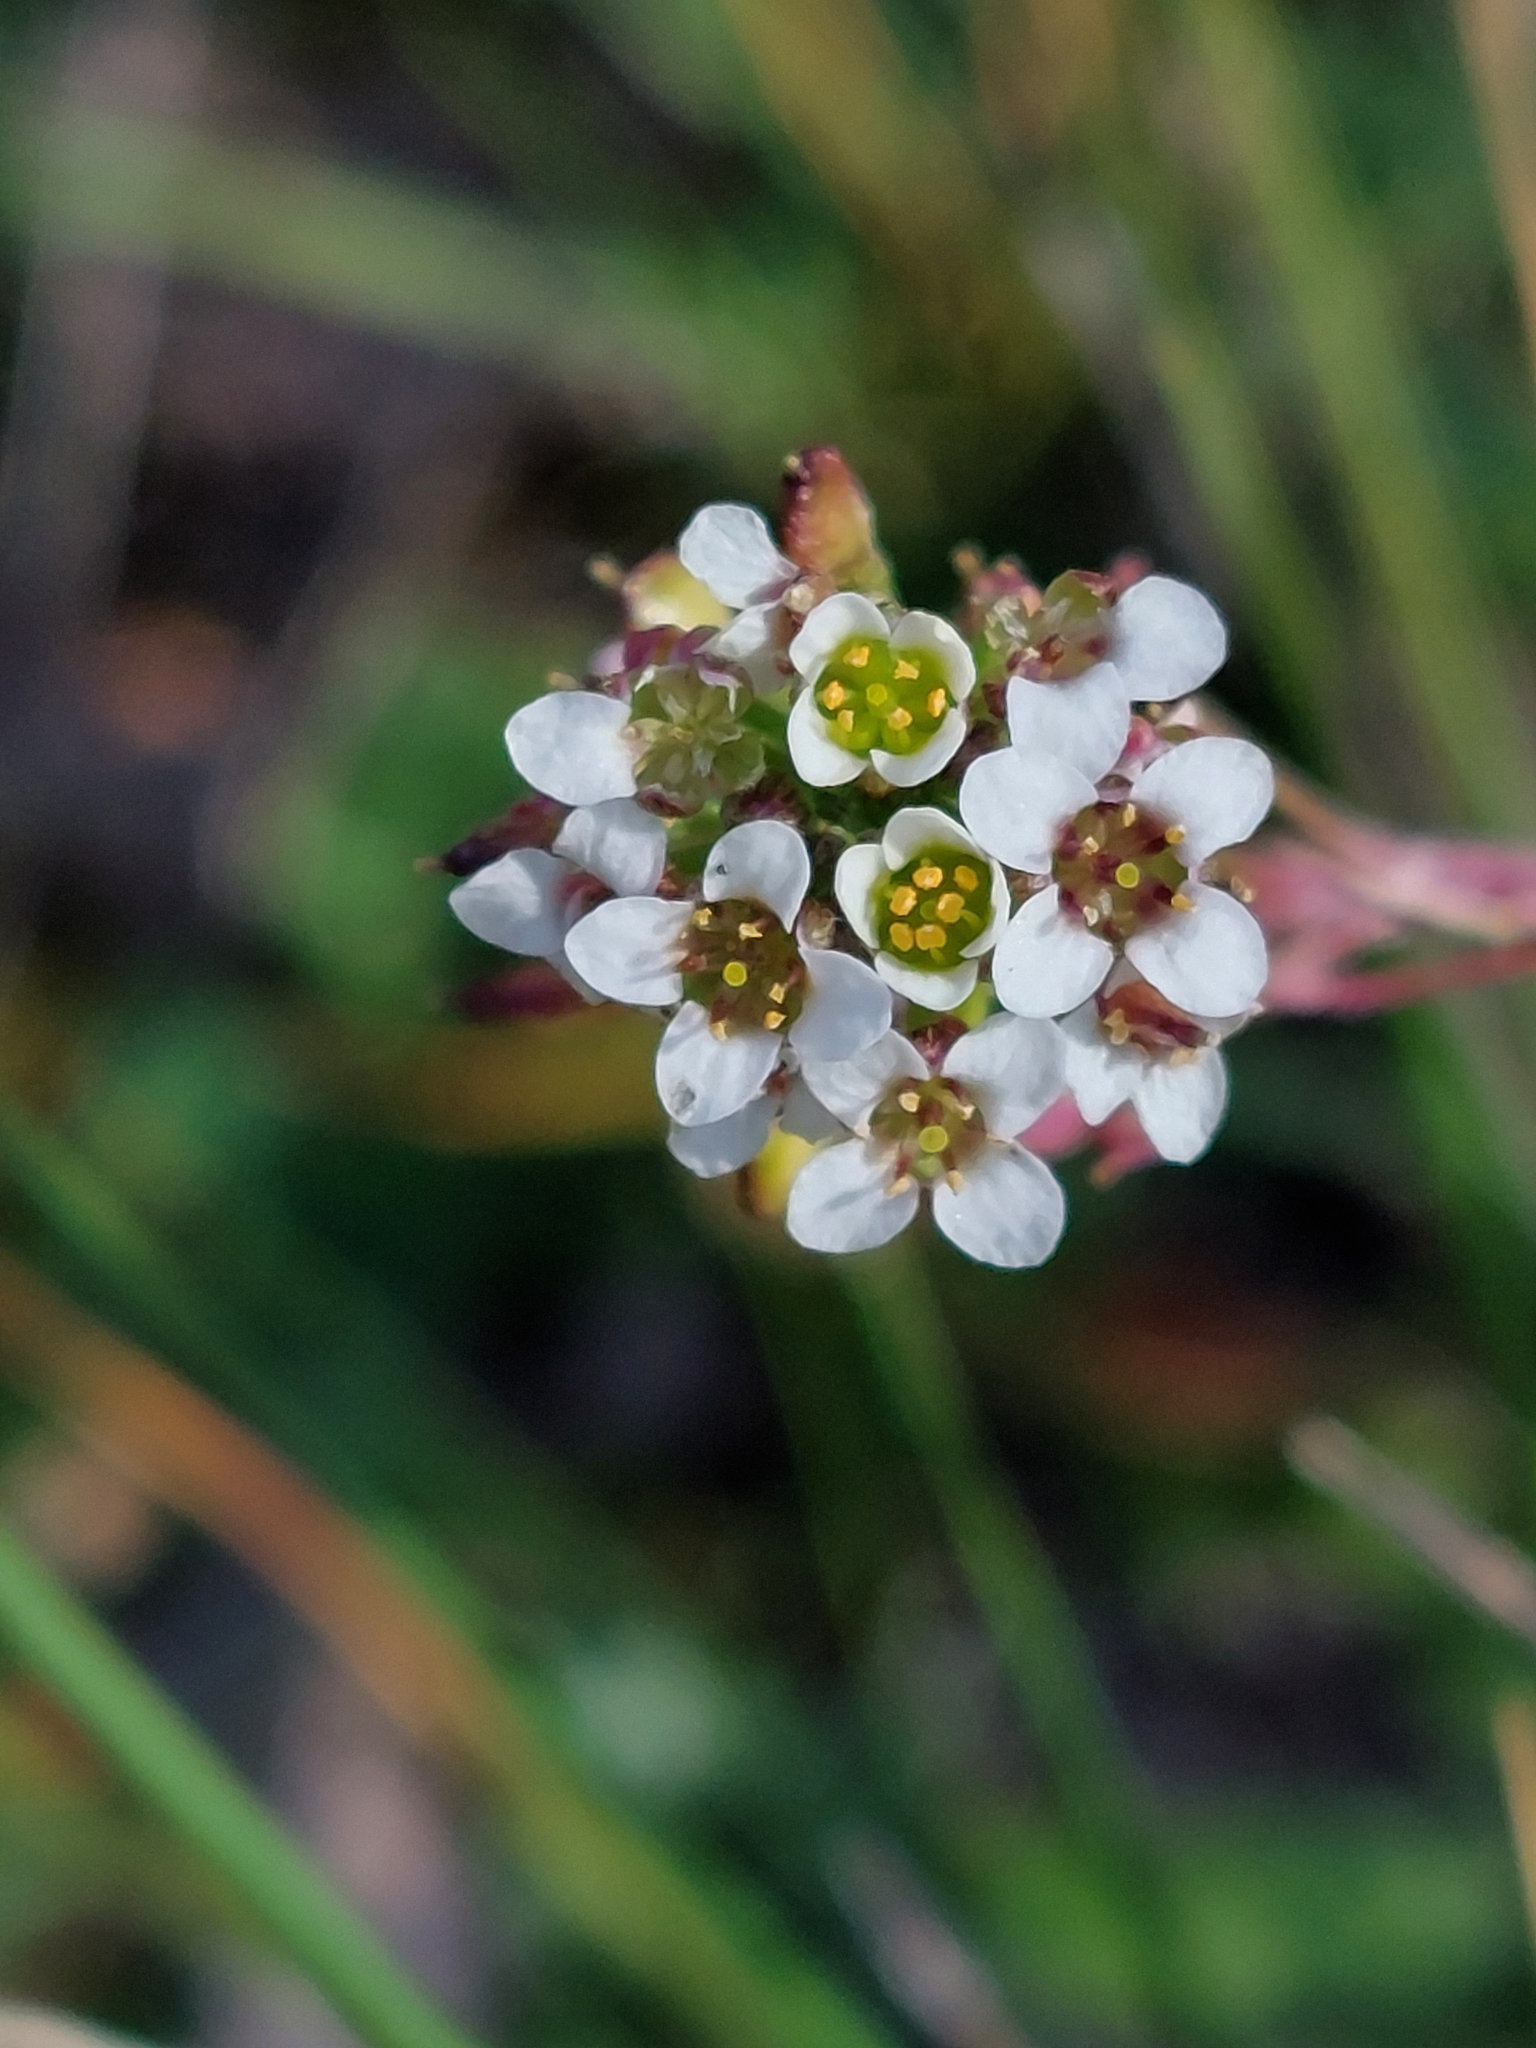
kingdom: Plantae
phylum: Tracheophyta
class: Magnoliopsida
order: Brassicales
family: Brassicaceae
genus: Lobularia
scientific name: Lobularia maritima
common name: Sweet alison
